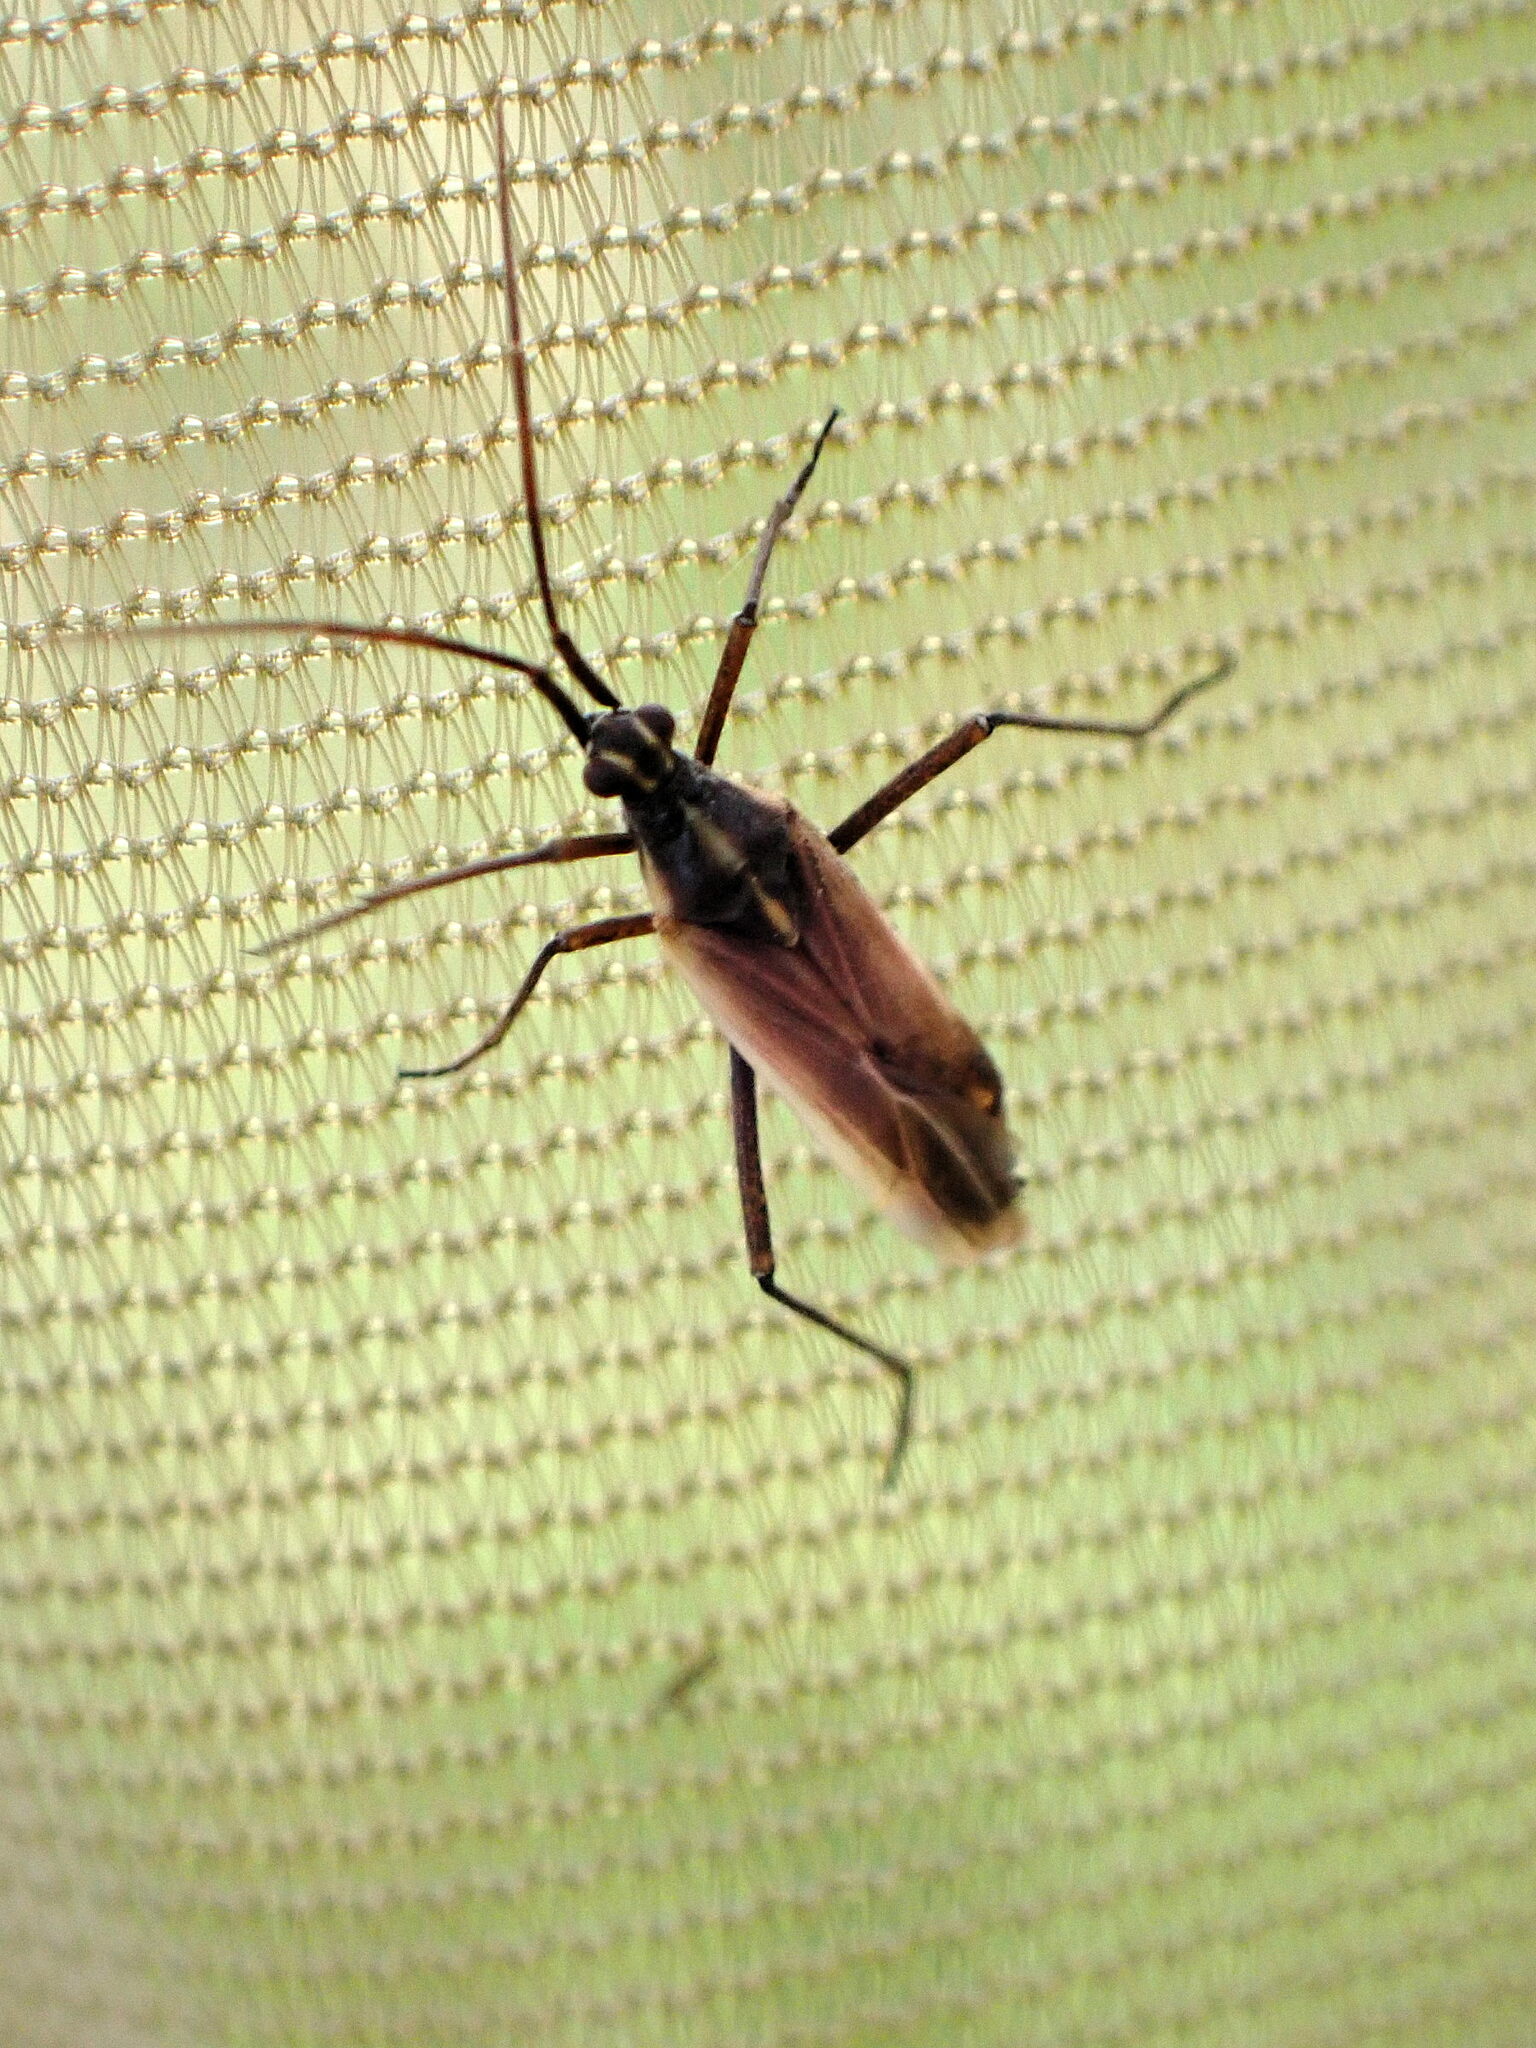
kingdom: Animalia
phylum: Arthropoda
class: Insecta
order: Hemiptera
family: Miridae
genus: Leptopterna
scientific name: Leptopterna dolabrata
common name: Meadow plant bug
